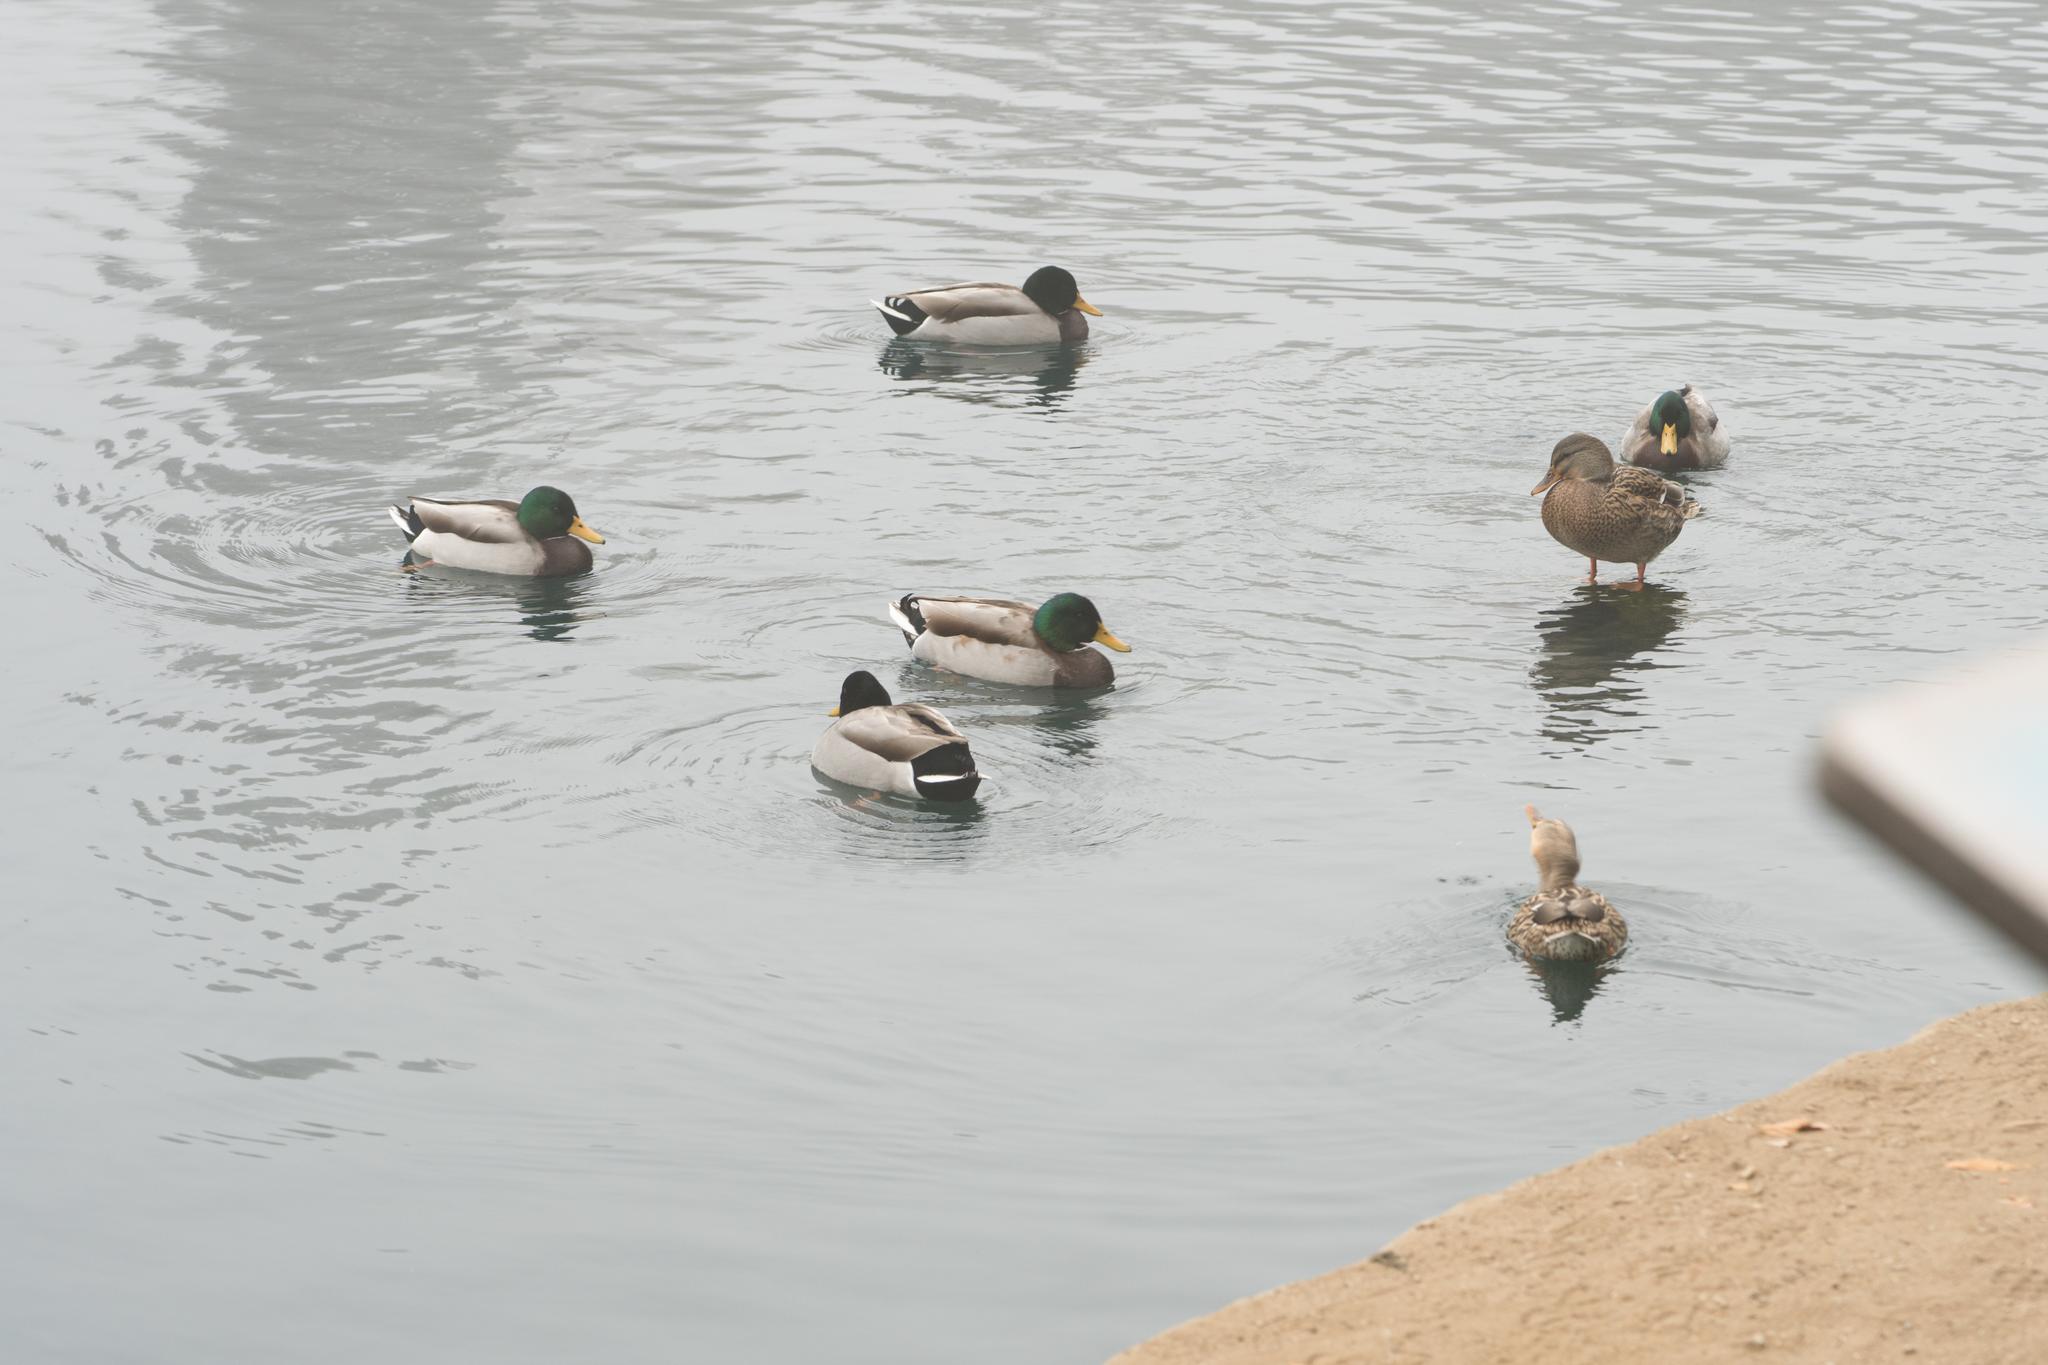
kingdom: Animalia
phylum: Chordata
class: Aves
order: Anseriformes
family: Anatidae
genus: Anas
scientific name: Anas platyrhynchos
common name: Mallard
